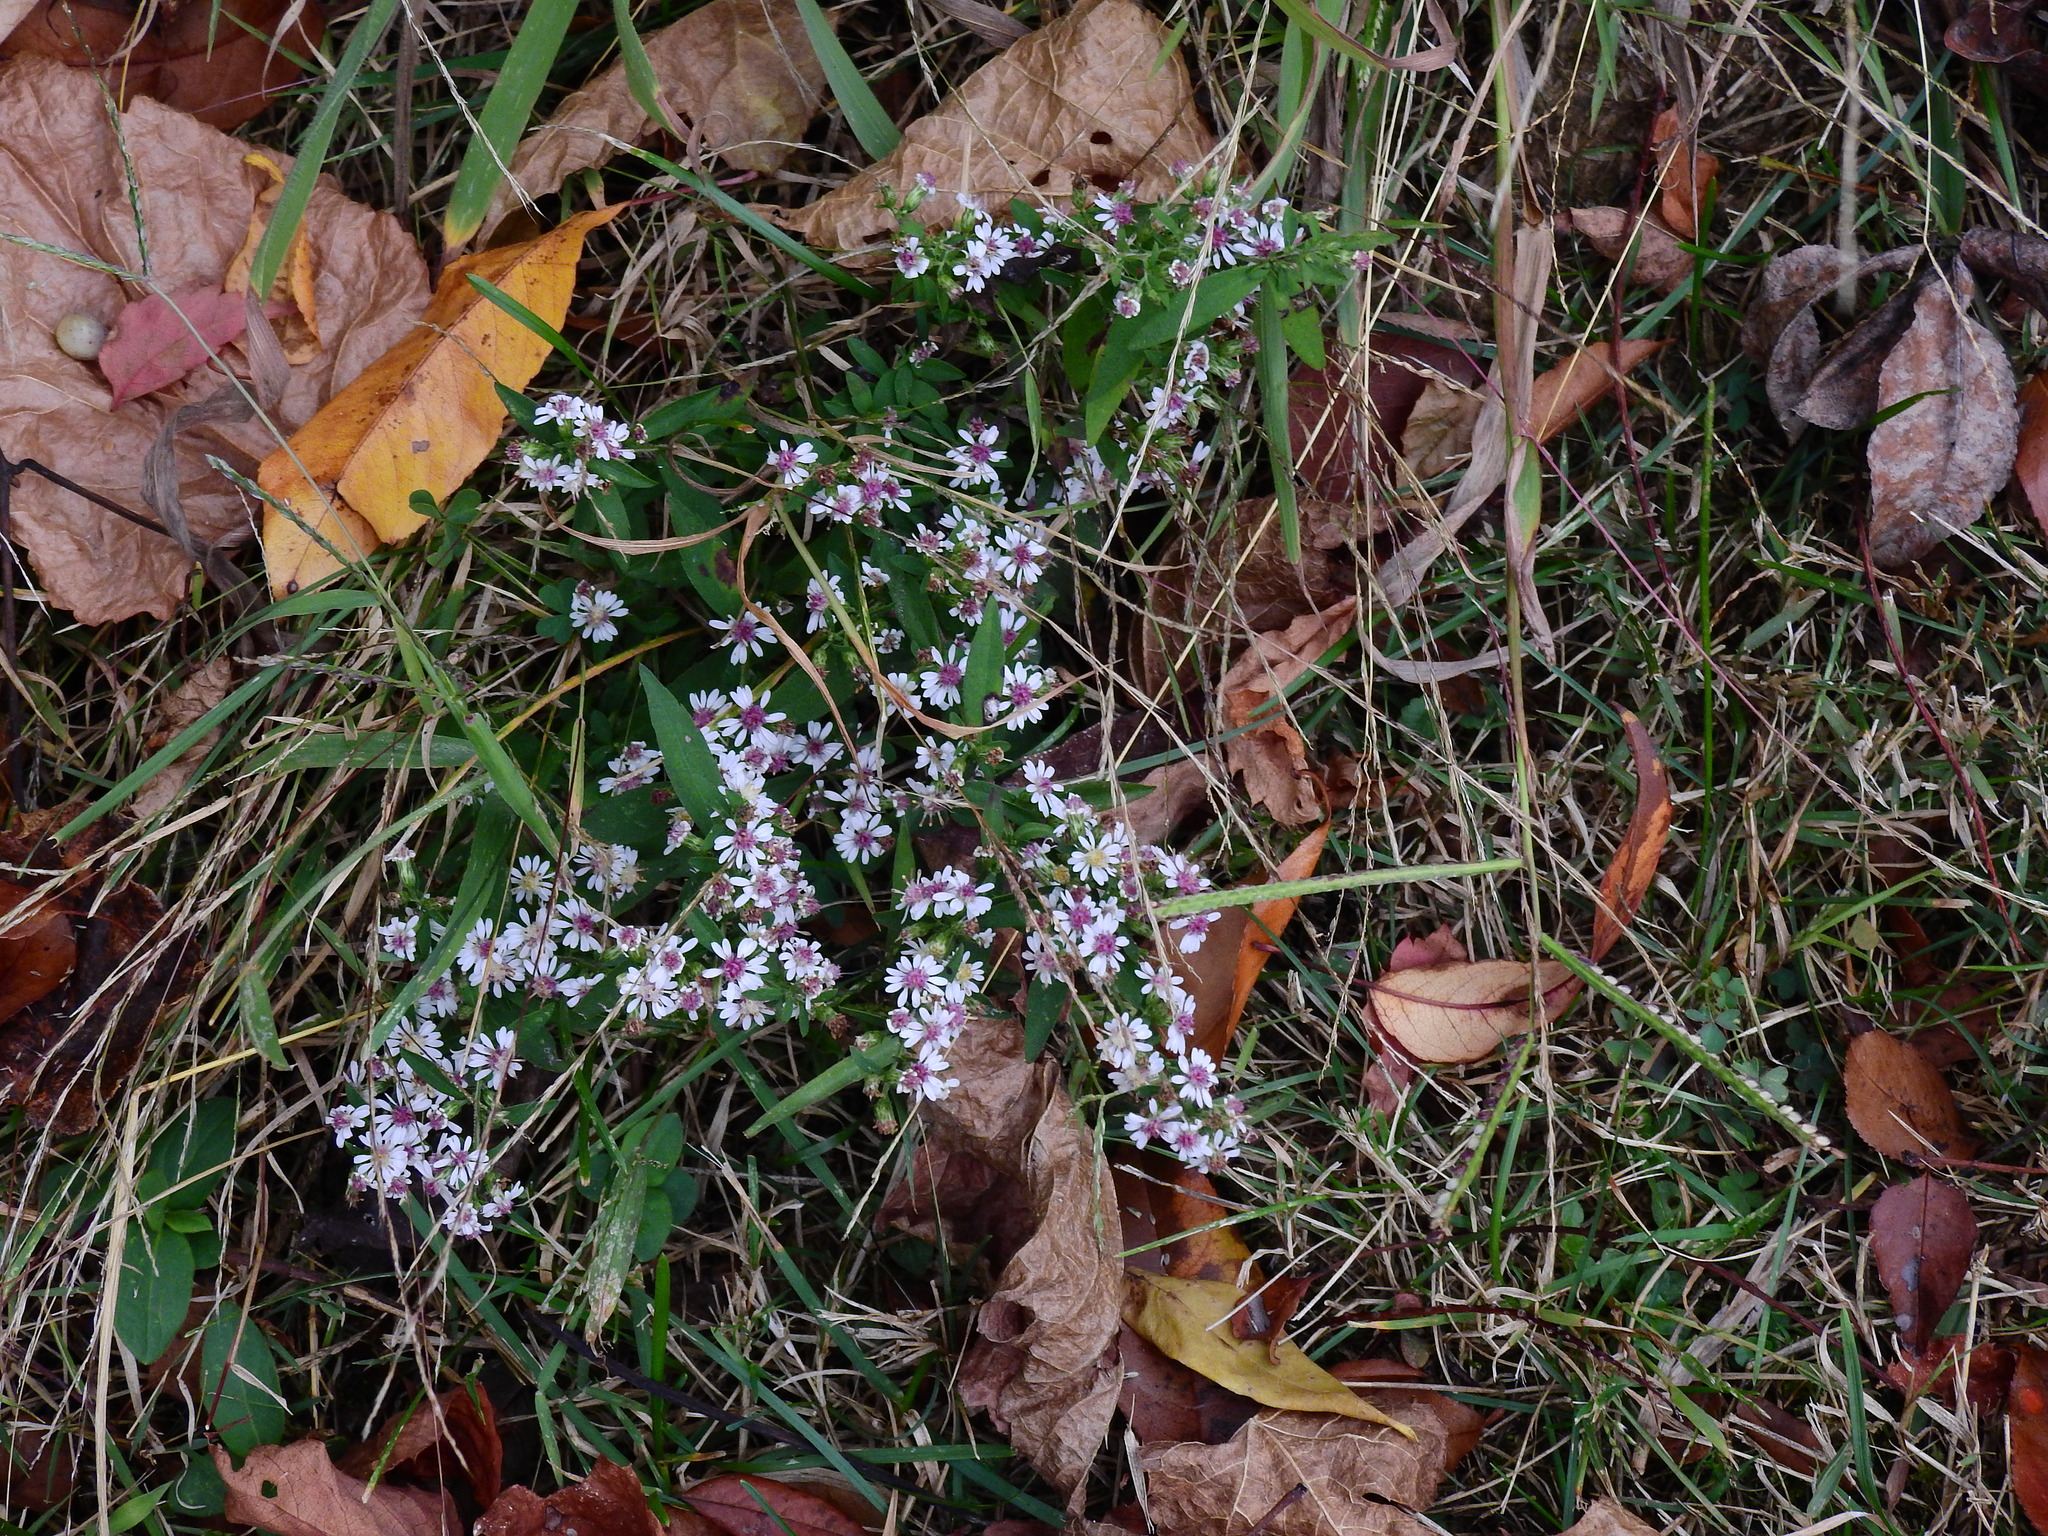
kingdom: Plantae
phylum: Tracheophyta
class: Magnoliopsida
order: Asterales
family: Asteraceae
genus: Symphyotrichum
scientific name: Symphyotrichum lateriflorum
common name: Calico aster
